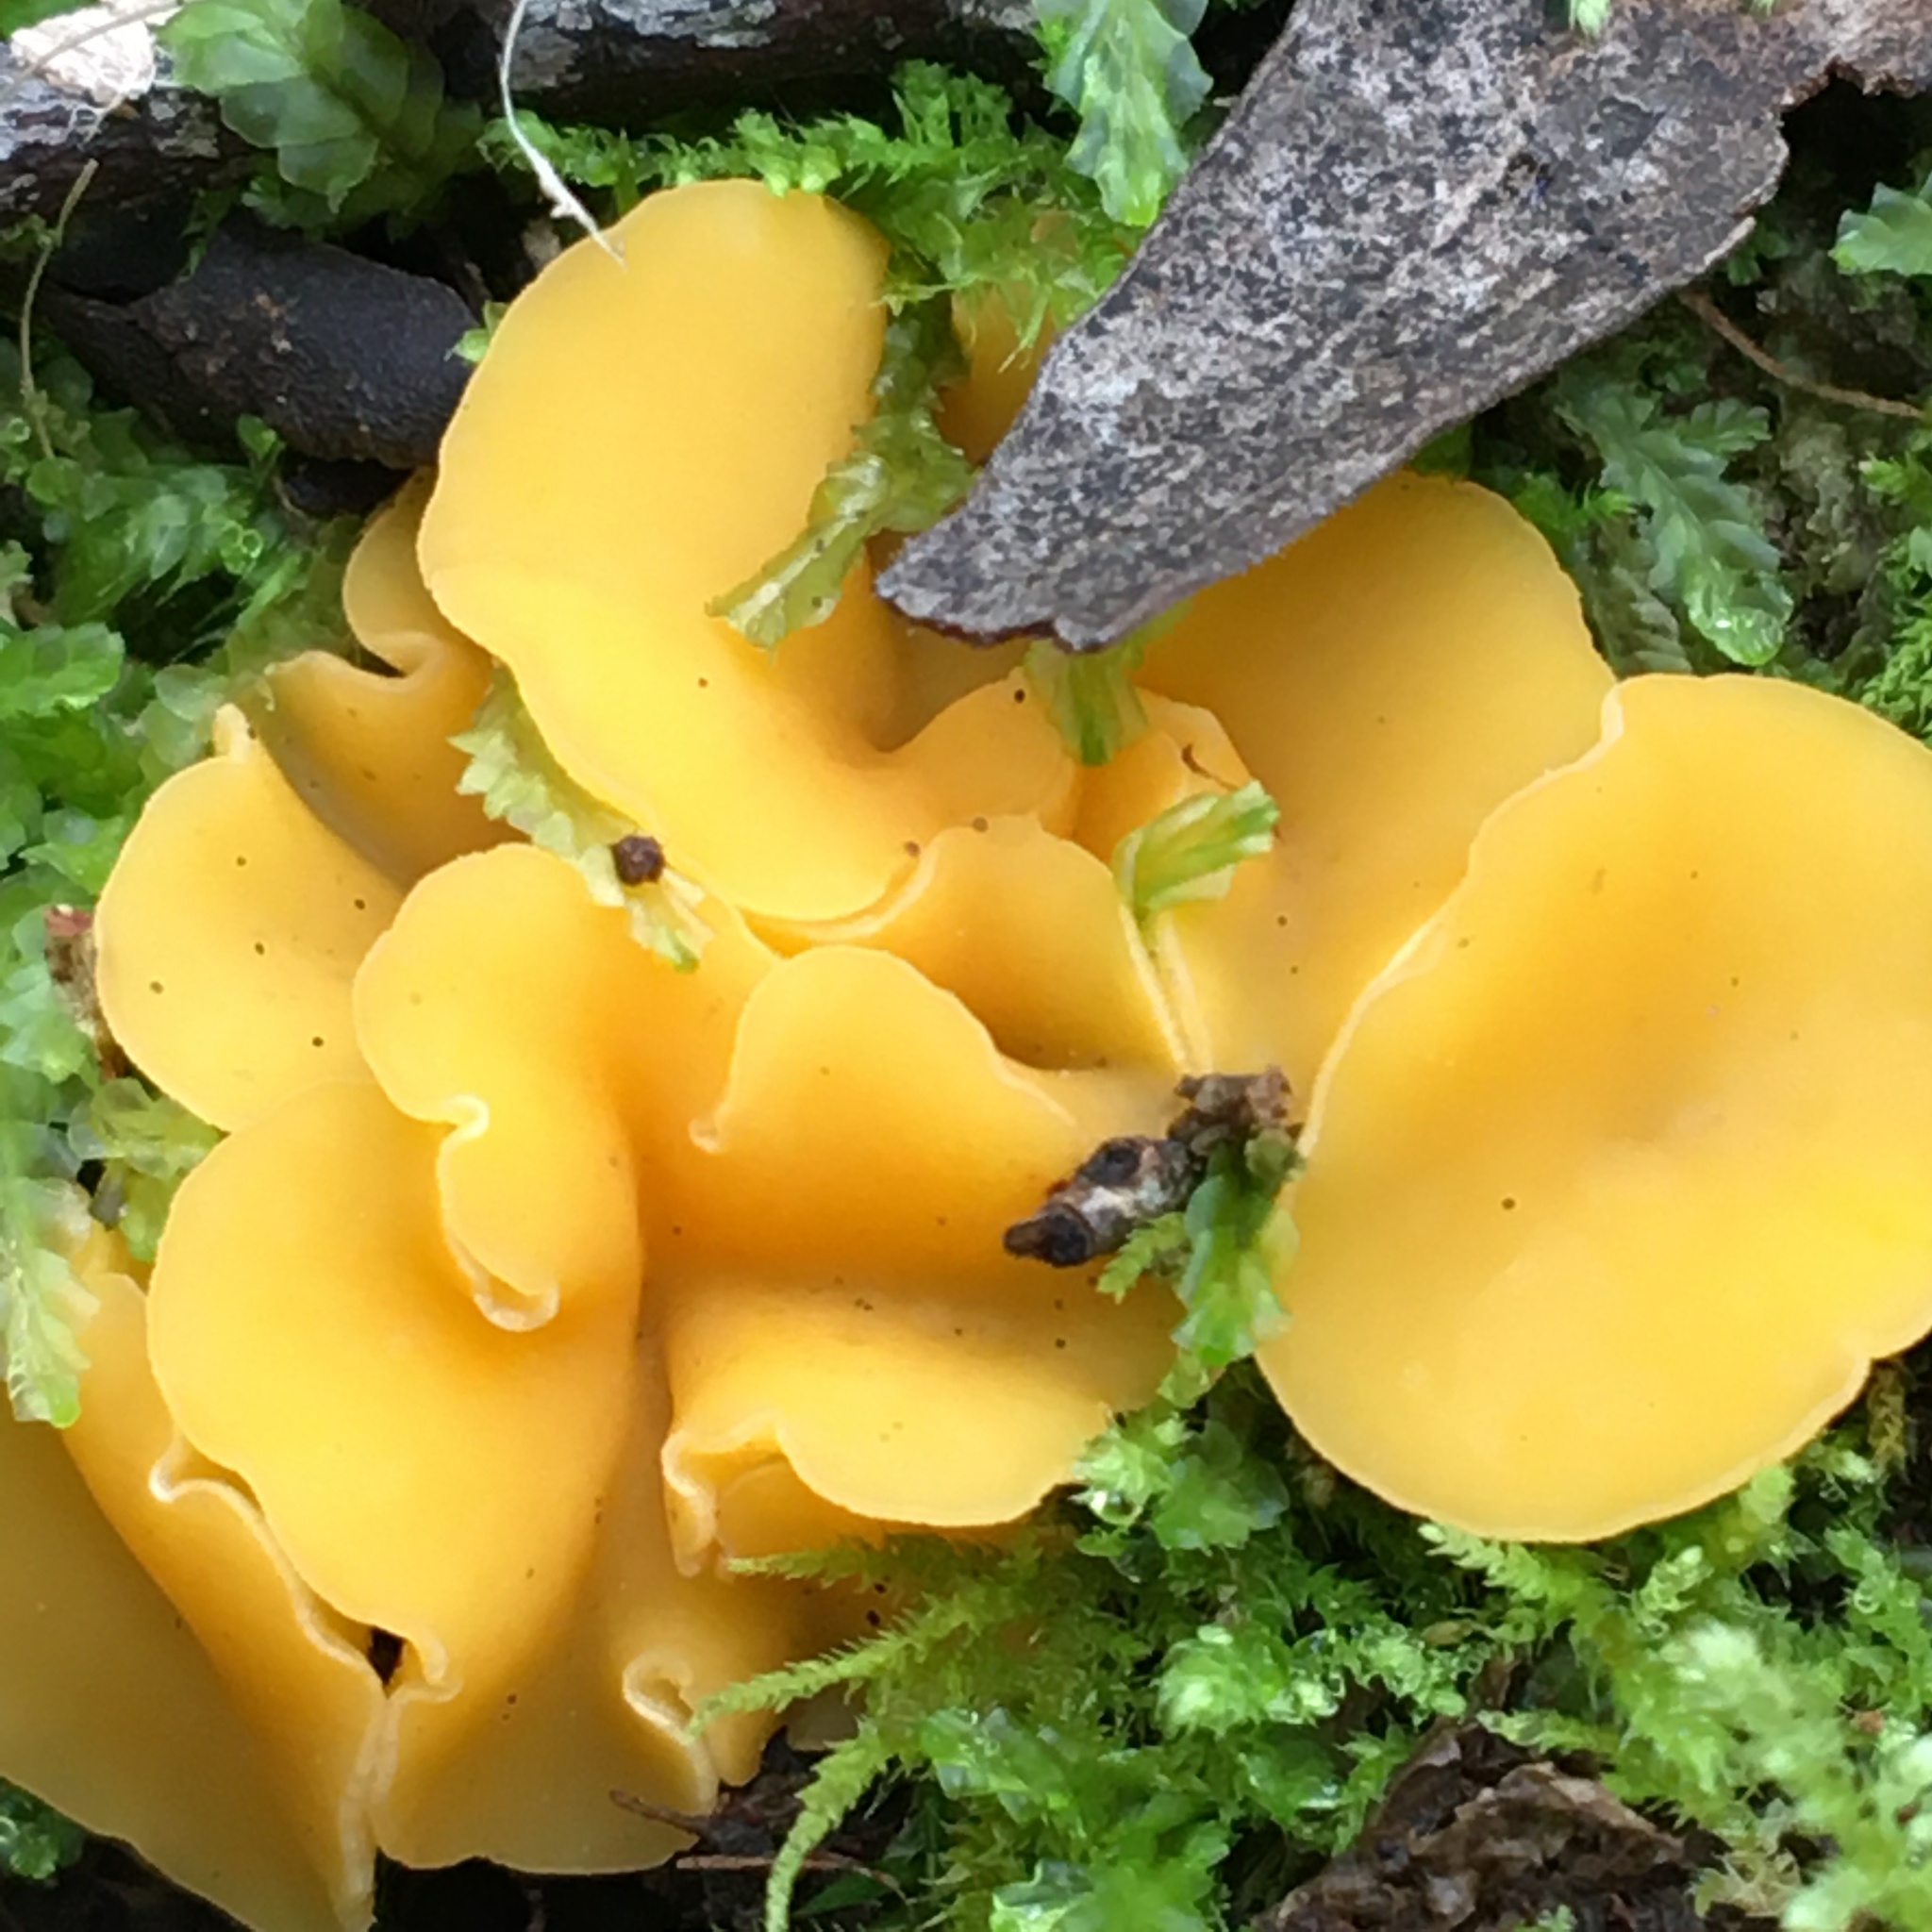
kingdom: Fungi
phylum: Ascomycota
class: Leotiomycetes
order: Helotiales
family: Helotiaceae
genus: Phaeohelotium
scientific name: Phaeohelotium baileyanum
